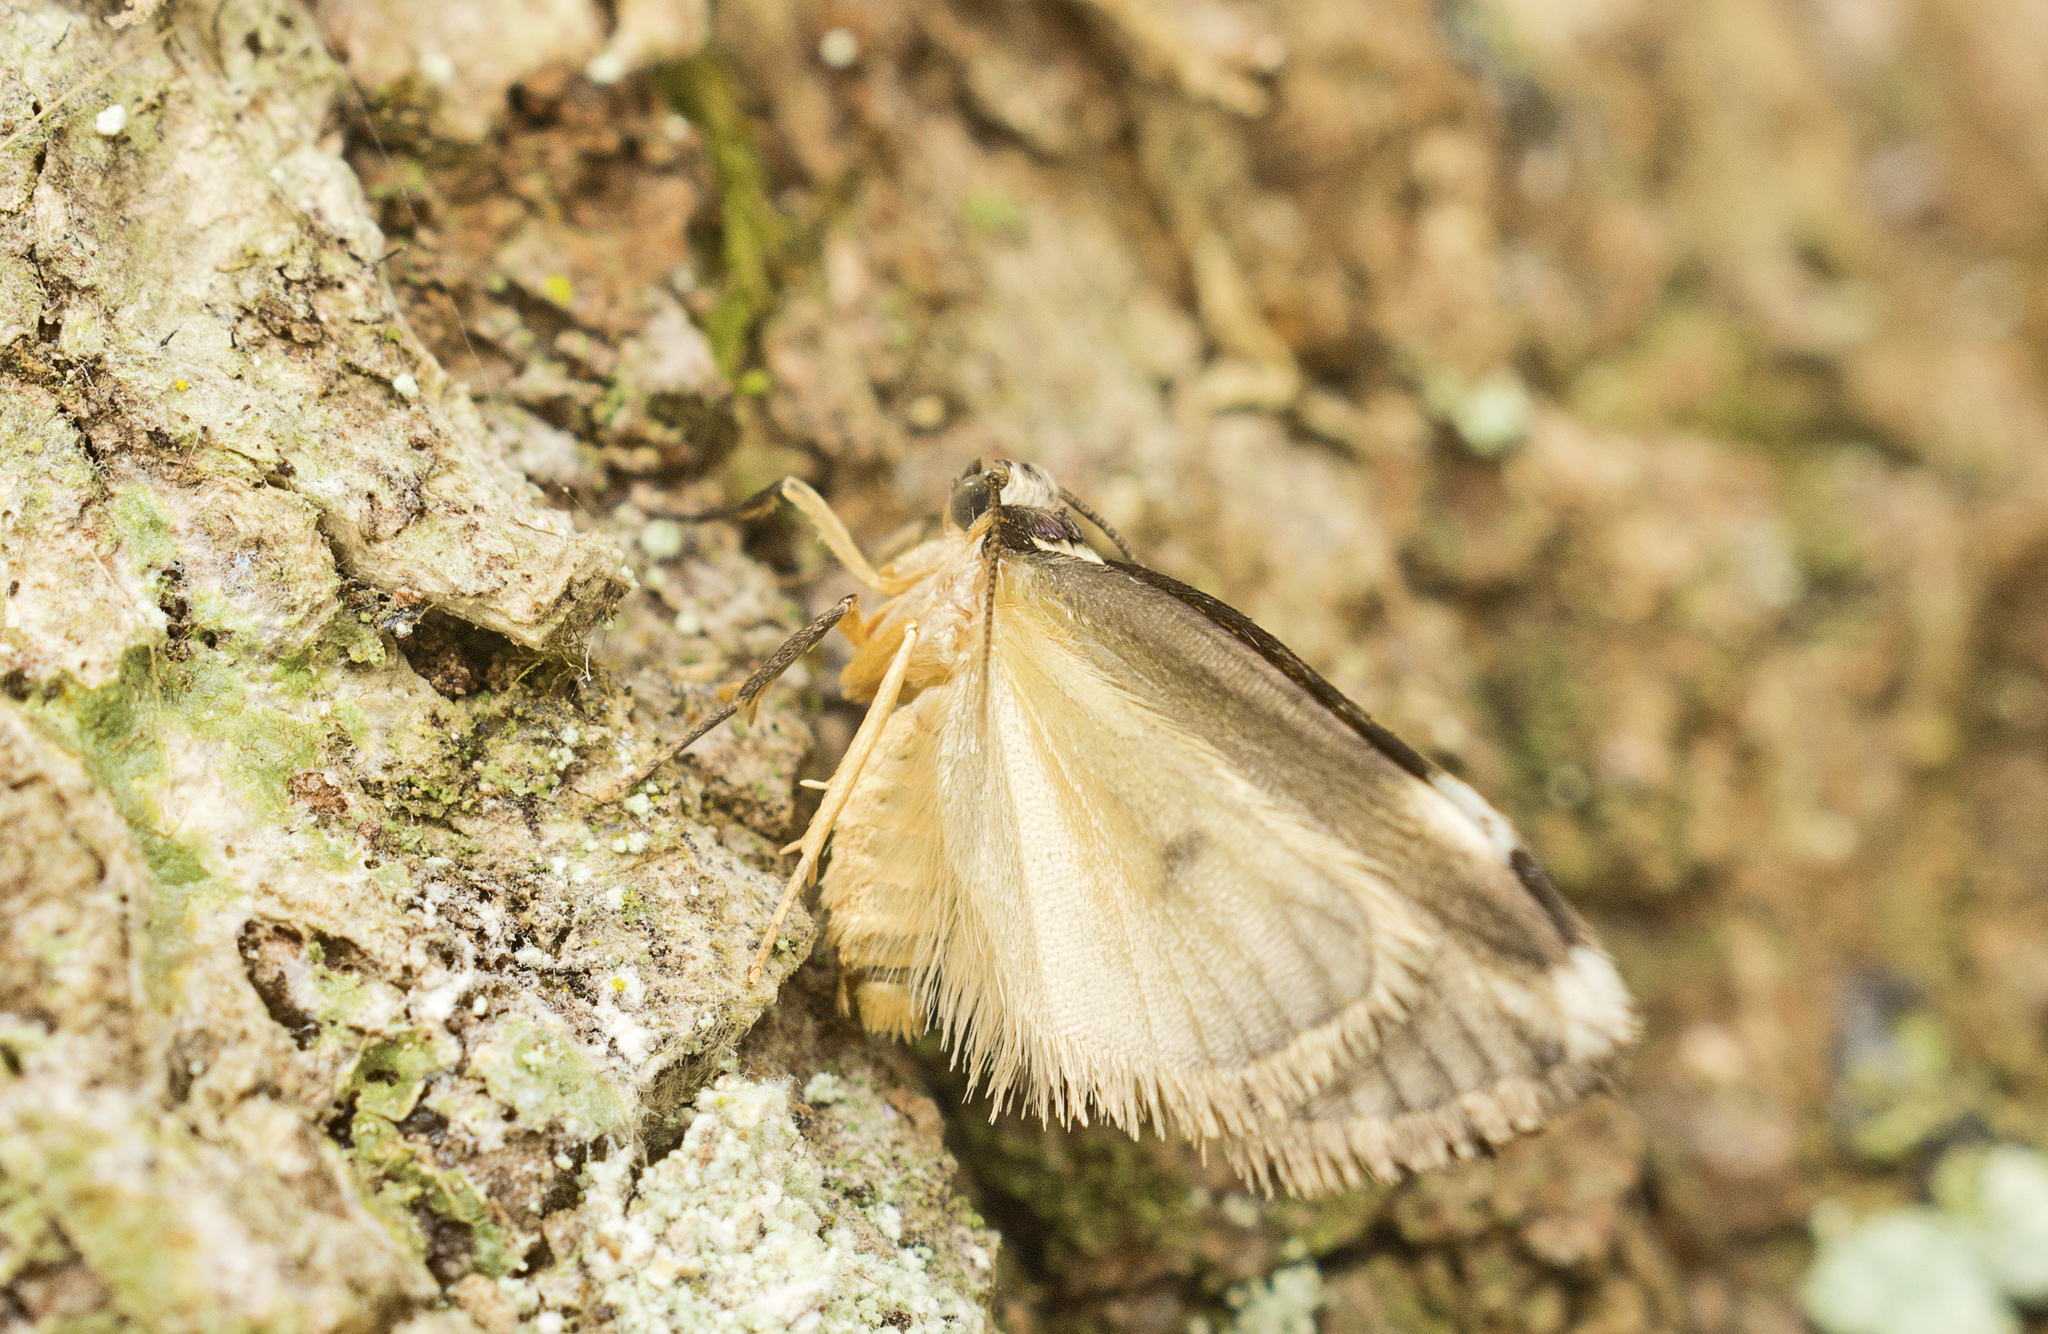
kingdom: Animalia
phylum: Arthropoda
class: Insecta
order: Lepidoptera
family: Erebidae
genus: Thallarcha
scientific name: Thallarcha epileuca
